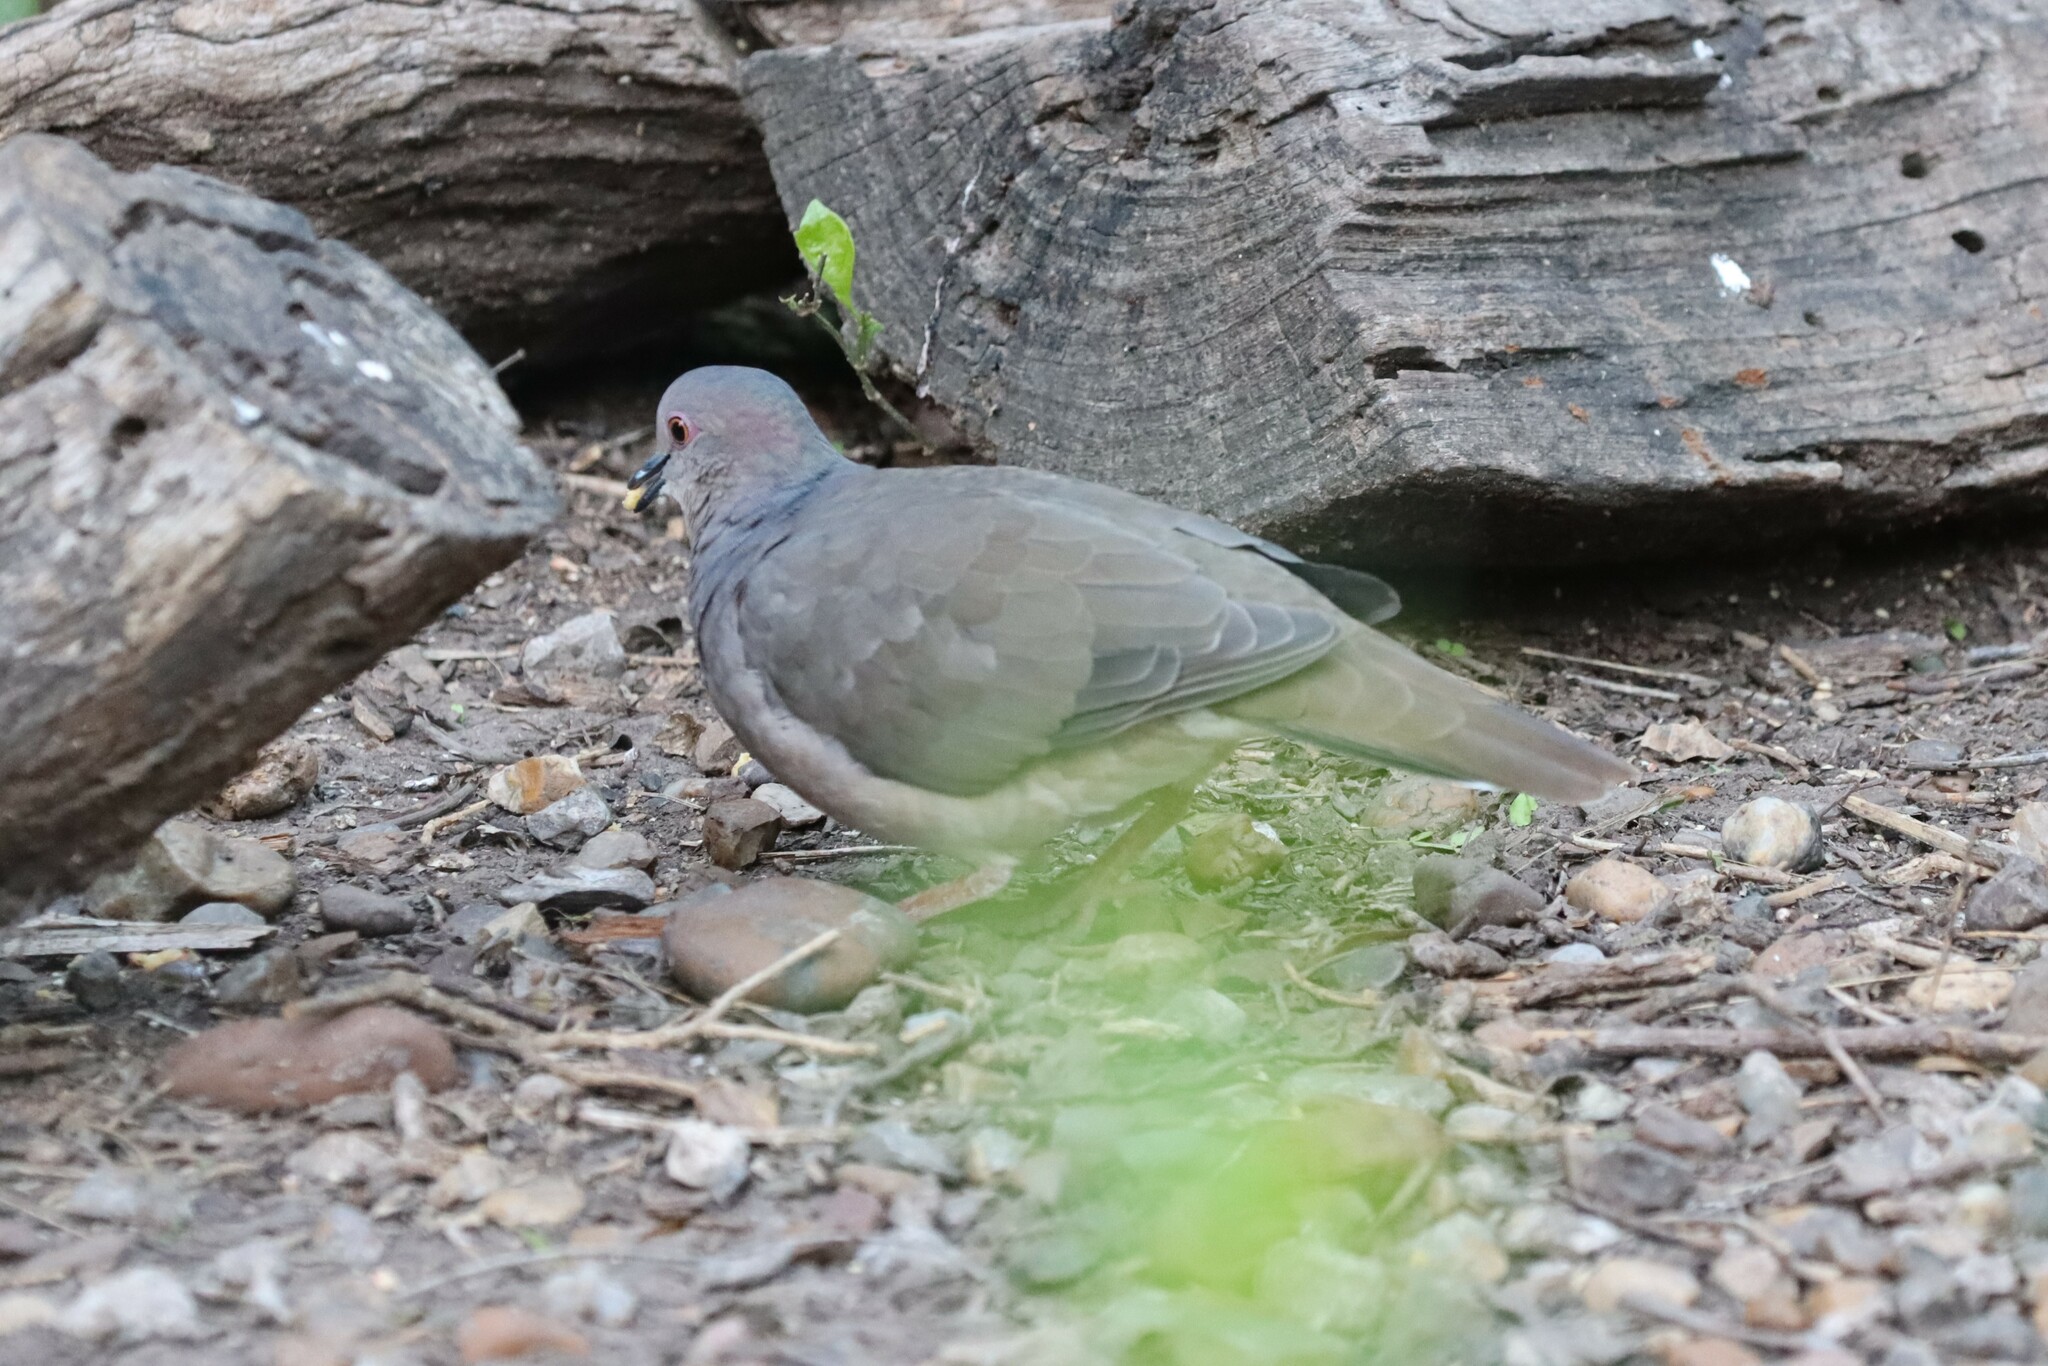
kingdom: Animalia
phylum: Chordata
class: Aves
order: Columbiformes
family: Columbidae
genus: Leptotila
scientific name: Leptotila verreauxi
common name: White-tipped dove
